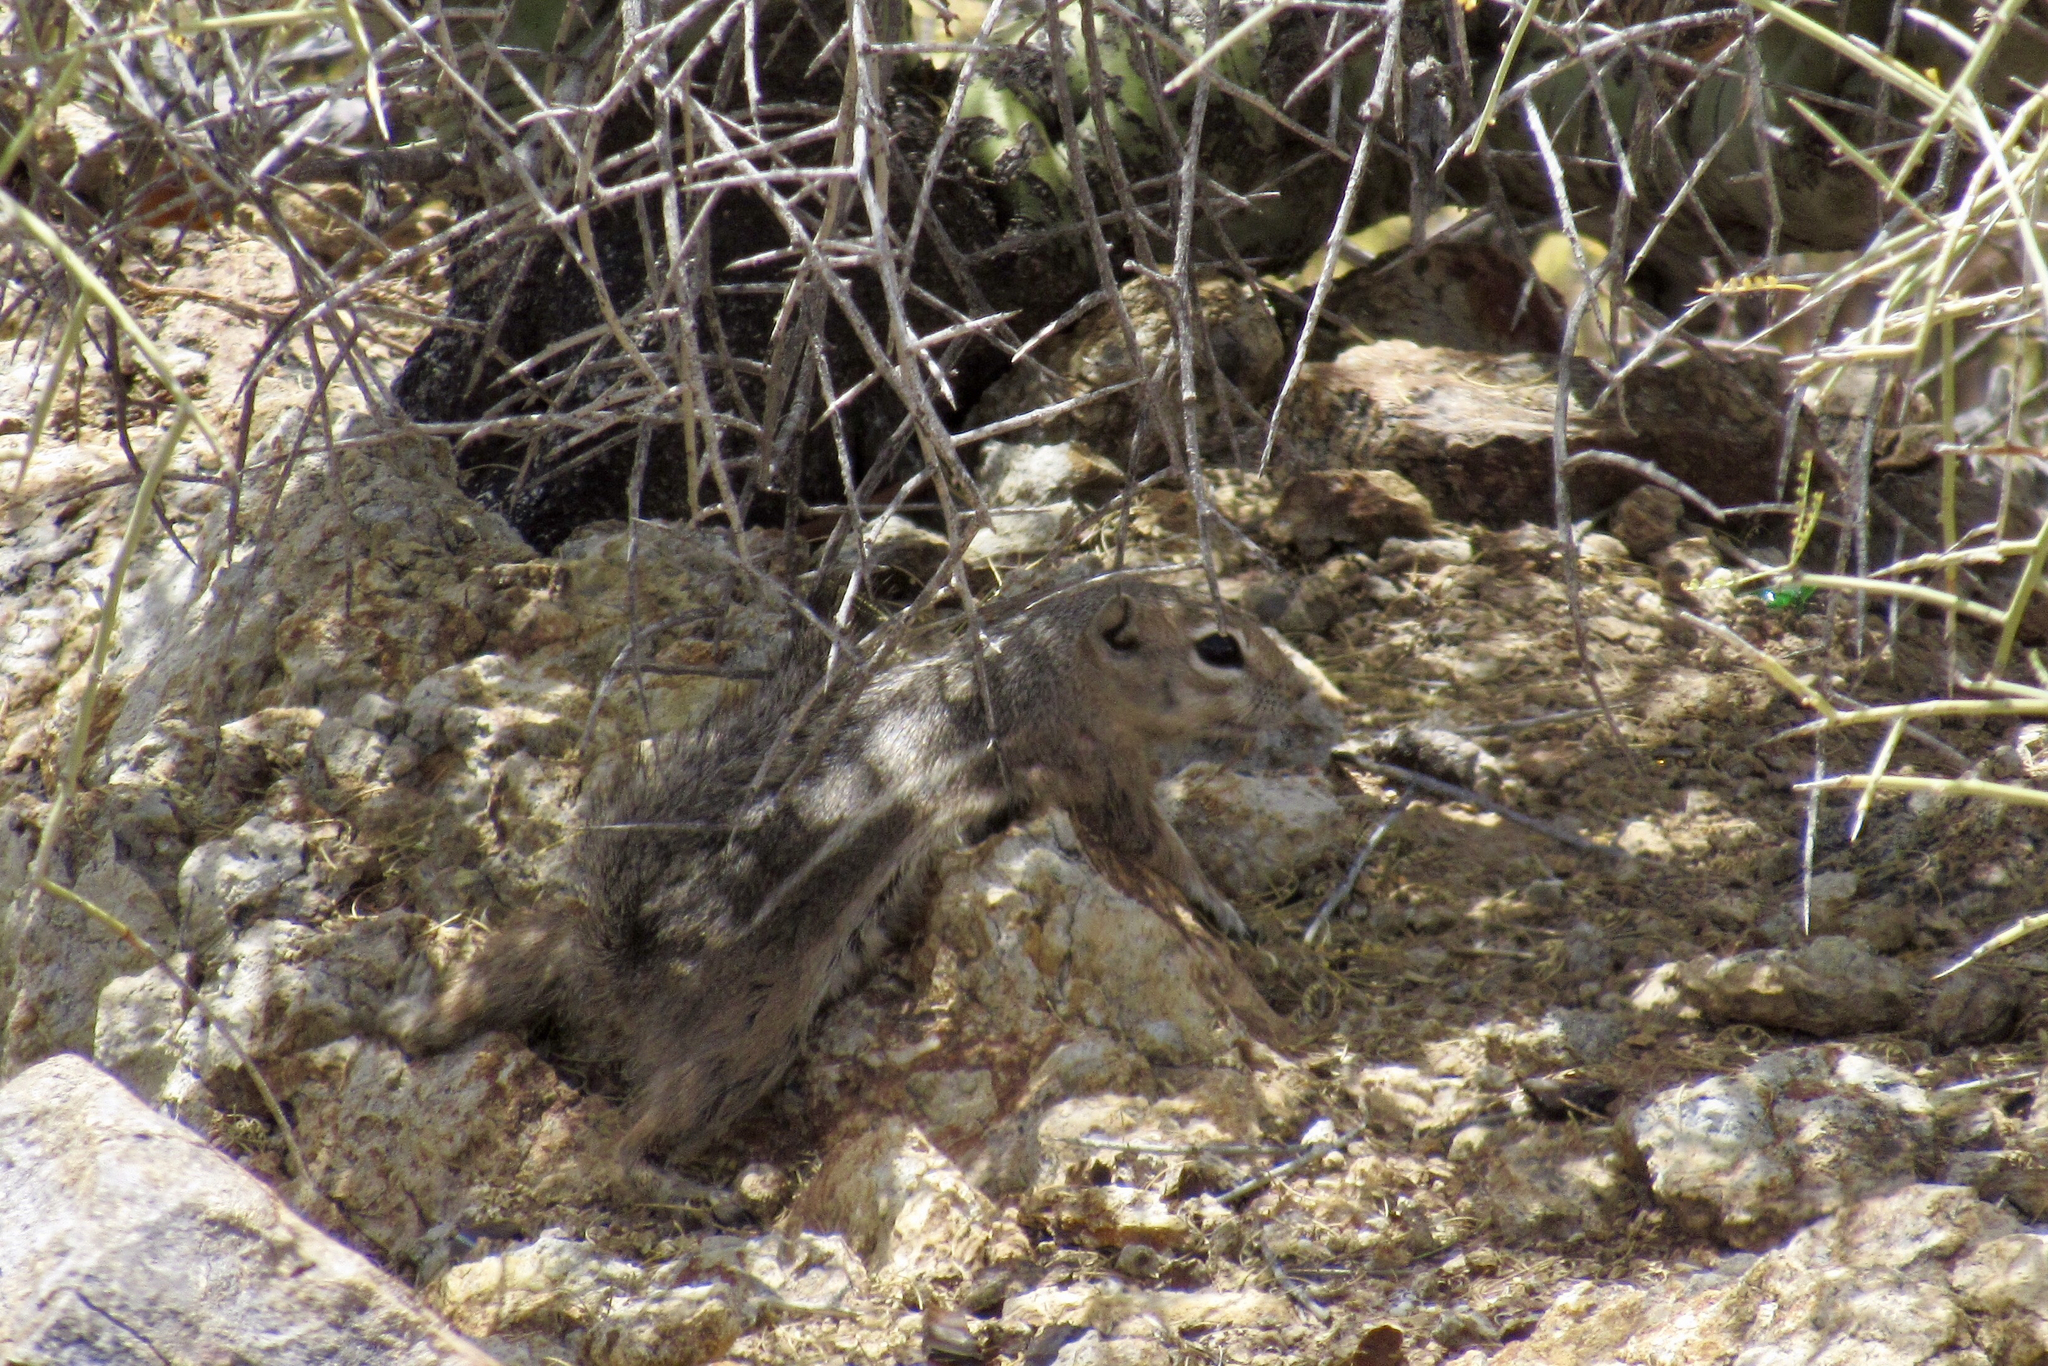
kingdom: Animalia
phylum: Chordata
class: Mammalia
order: Rodentia
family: Sciuridae
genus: Ammospermophilus
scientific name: Ammospermophilus harrisii
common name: Harris's antelope squirrel
